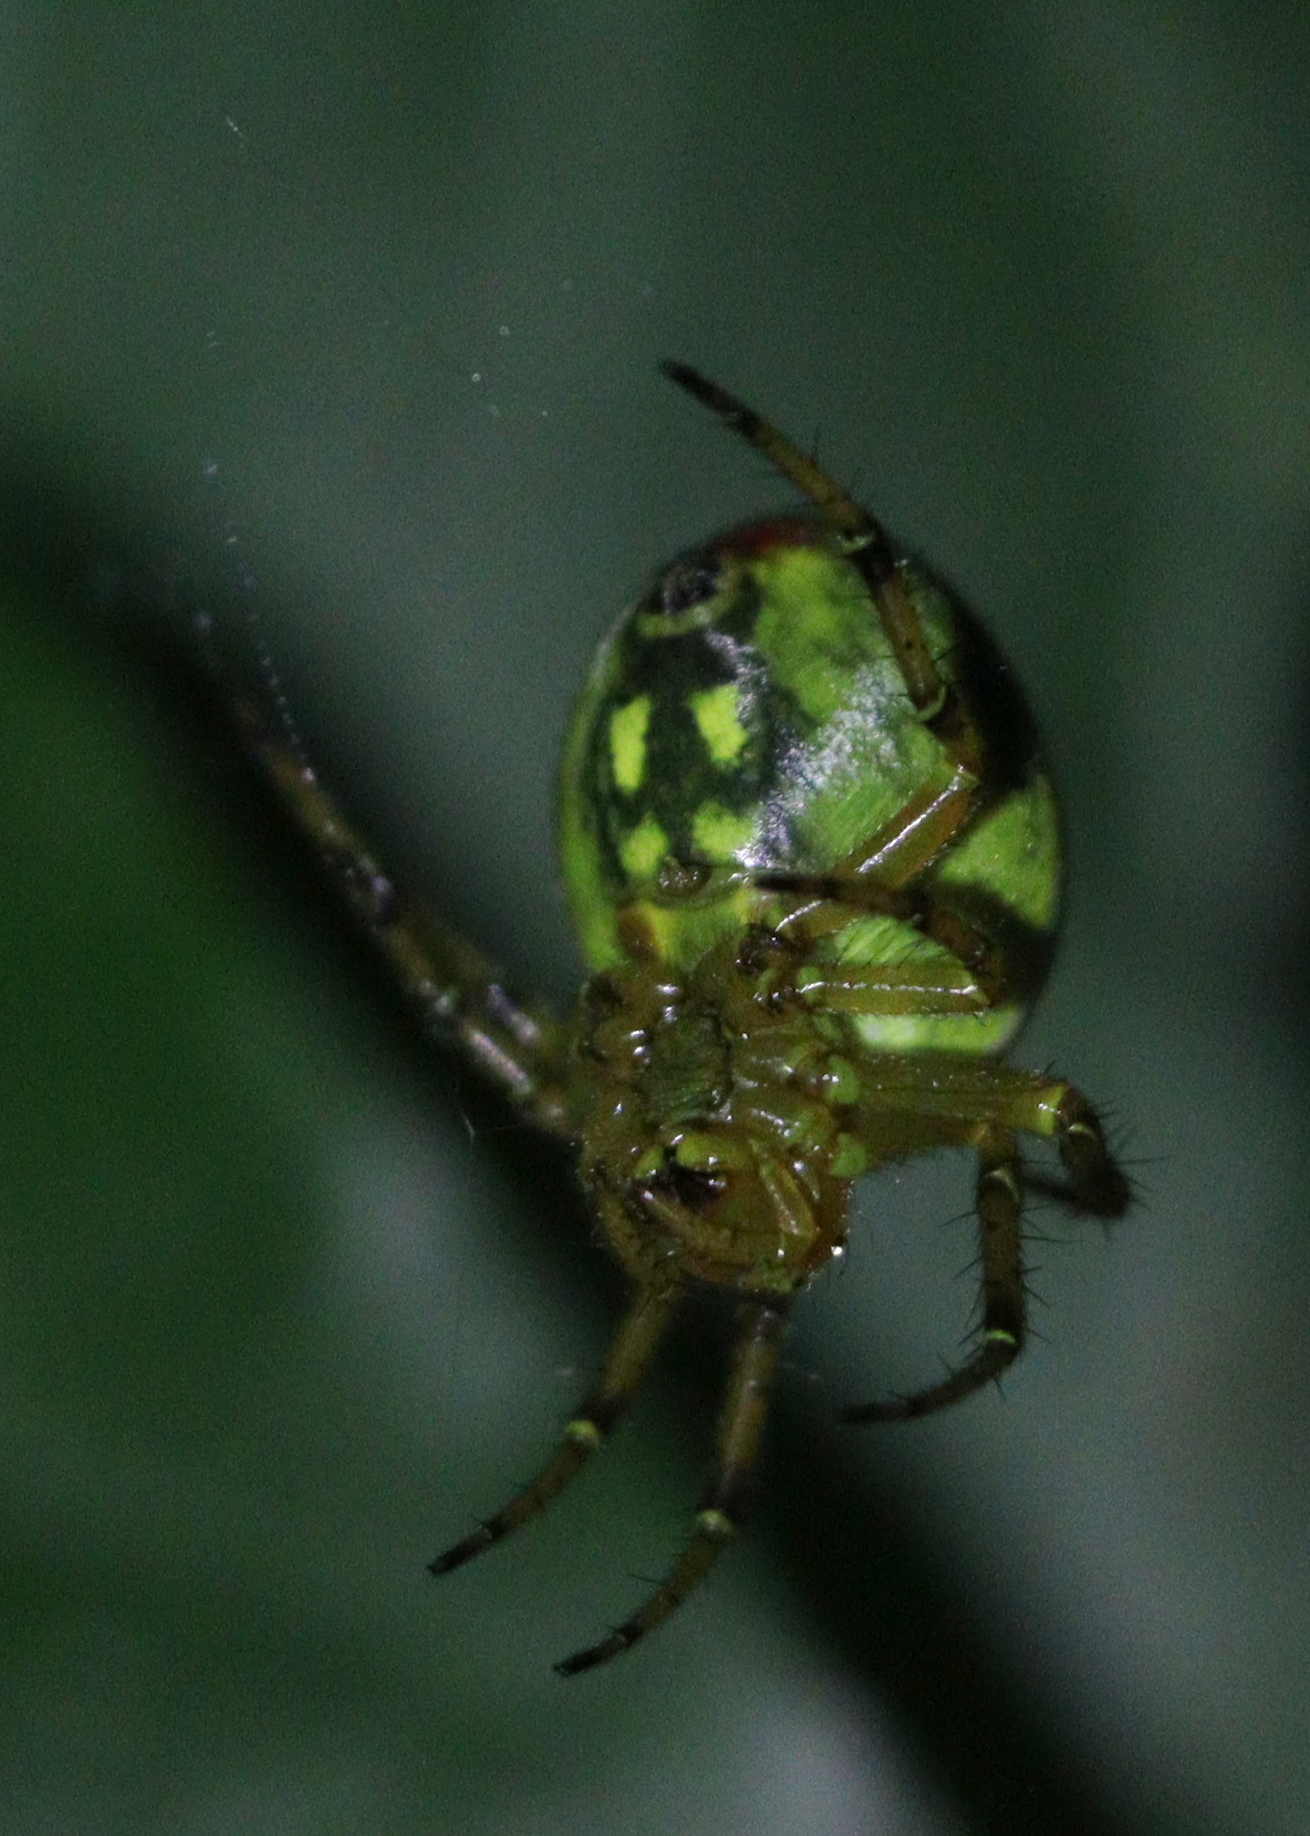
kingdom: Animalia
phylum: Arthropoda
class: Arachnida
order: Araneae
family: Araneidae
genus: Araniella
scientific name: Araniella alpica
